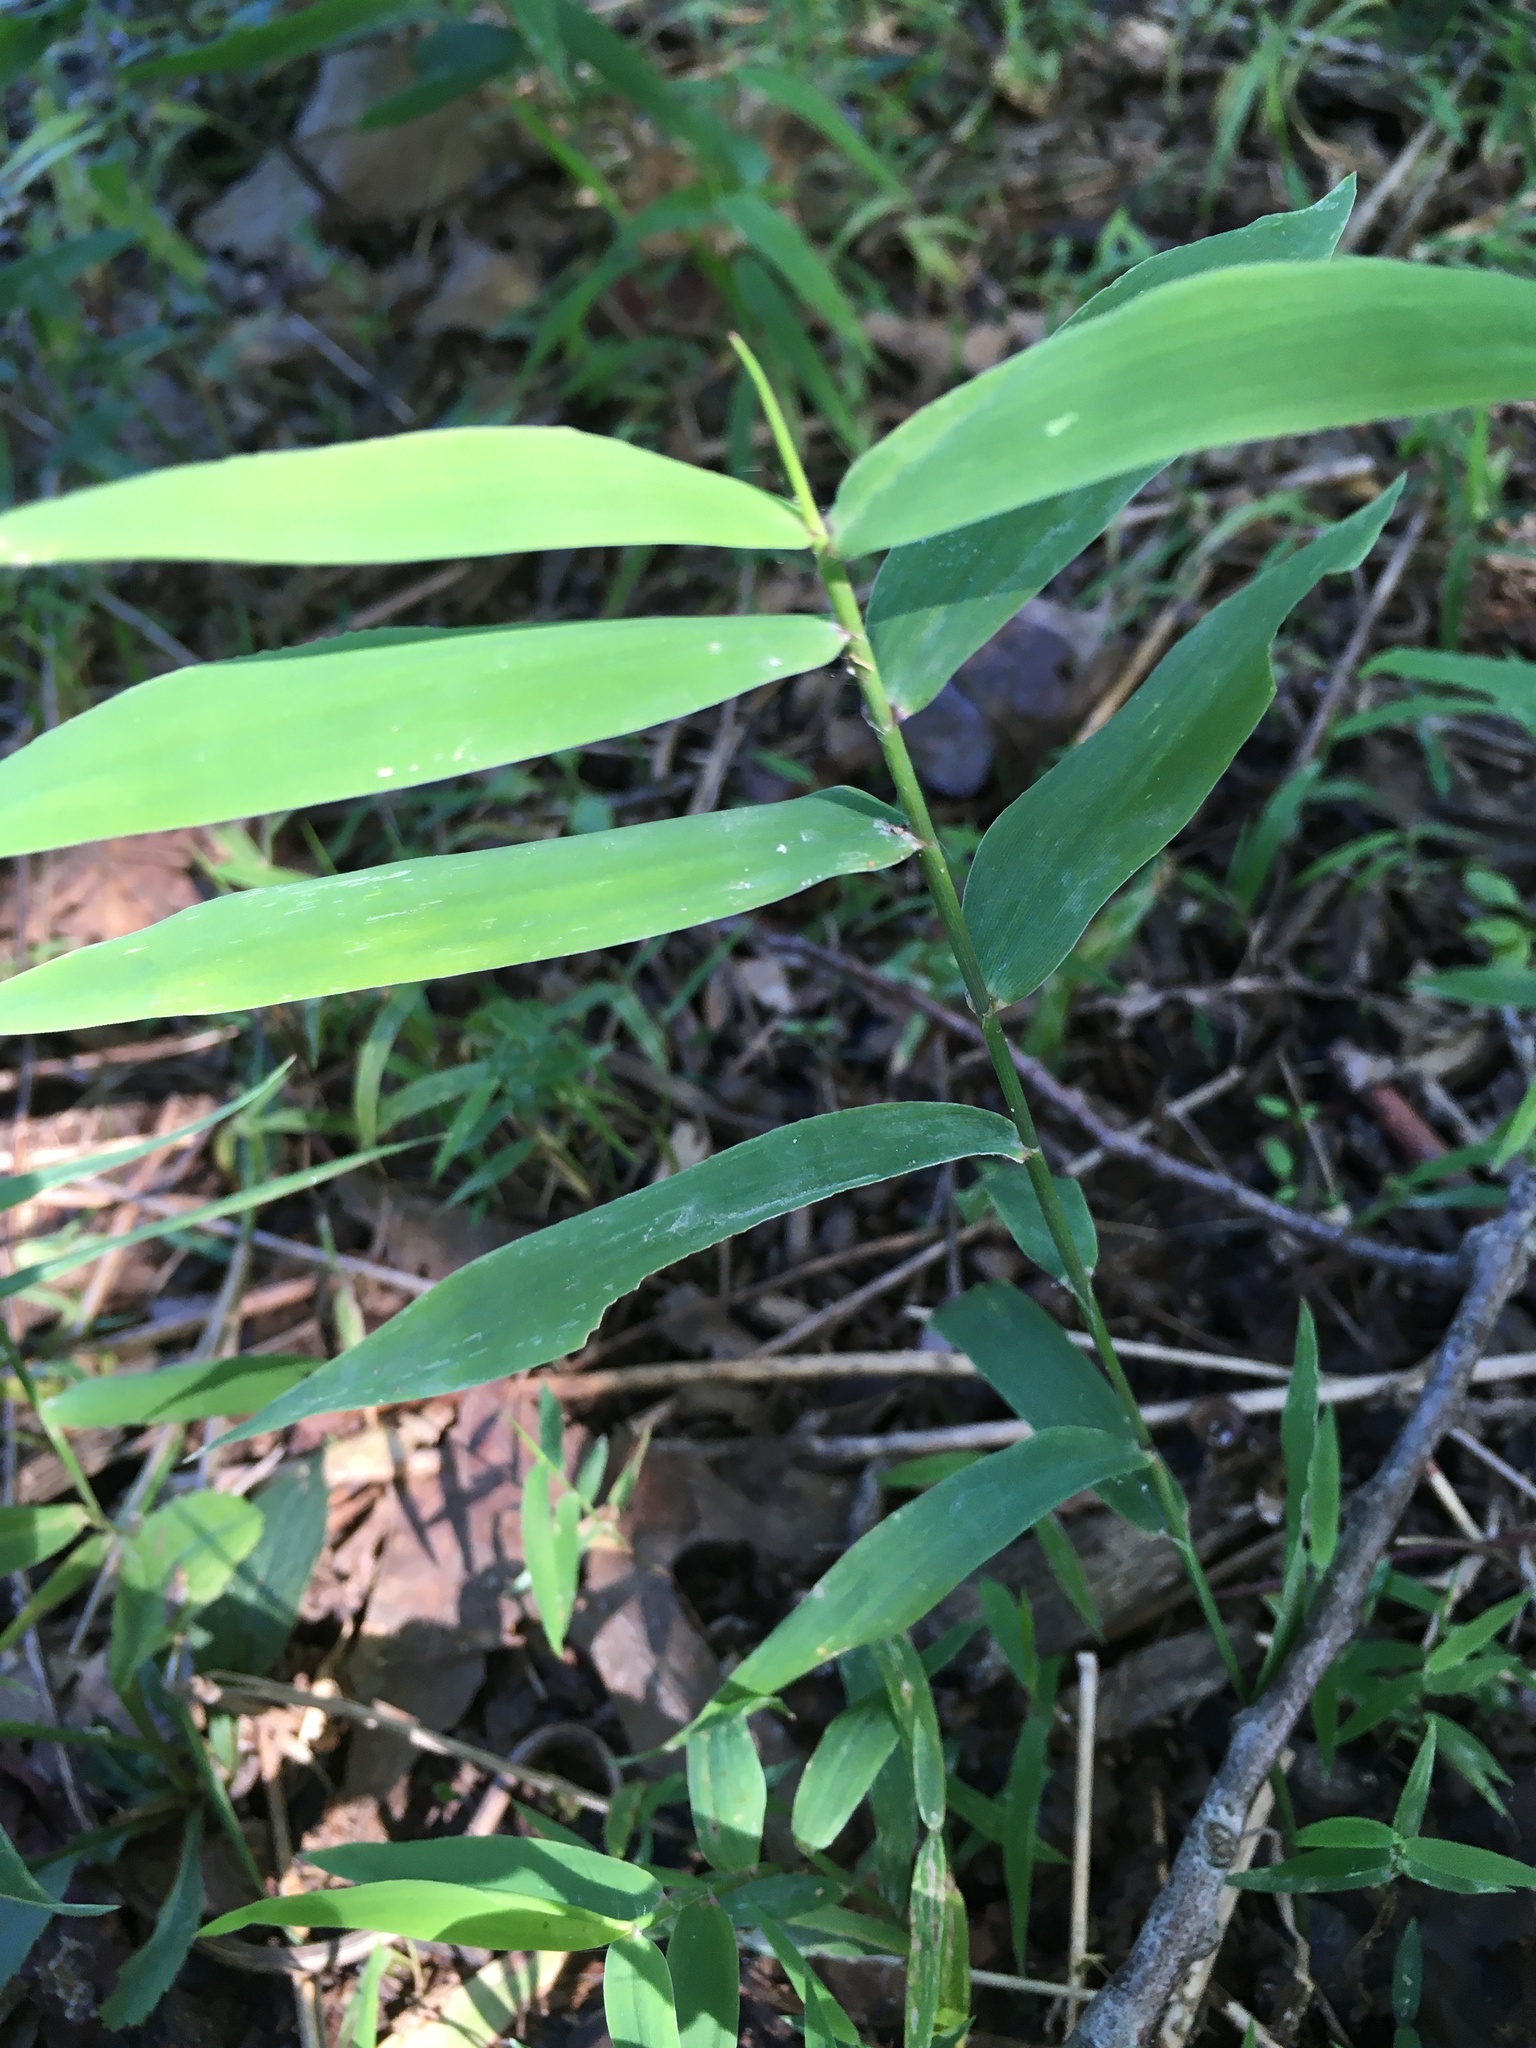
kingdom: Plantae
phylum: Tracheophyta
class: Liliopsida
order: Poales
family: Poaceae
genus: Chasmanthium
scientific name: Chasmanthium latifolium
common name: Broad-leaved chasmanthium
